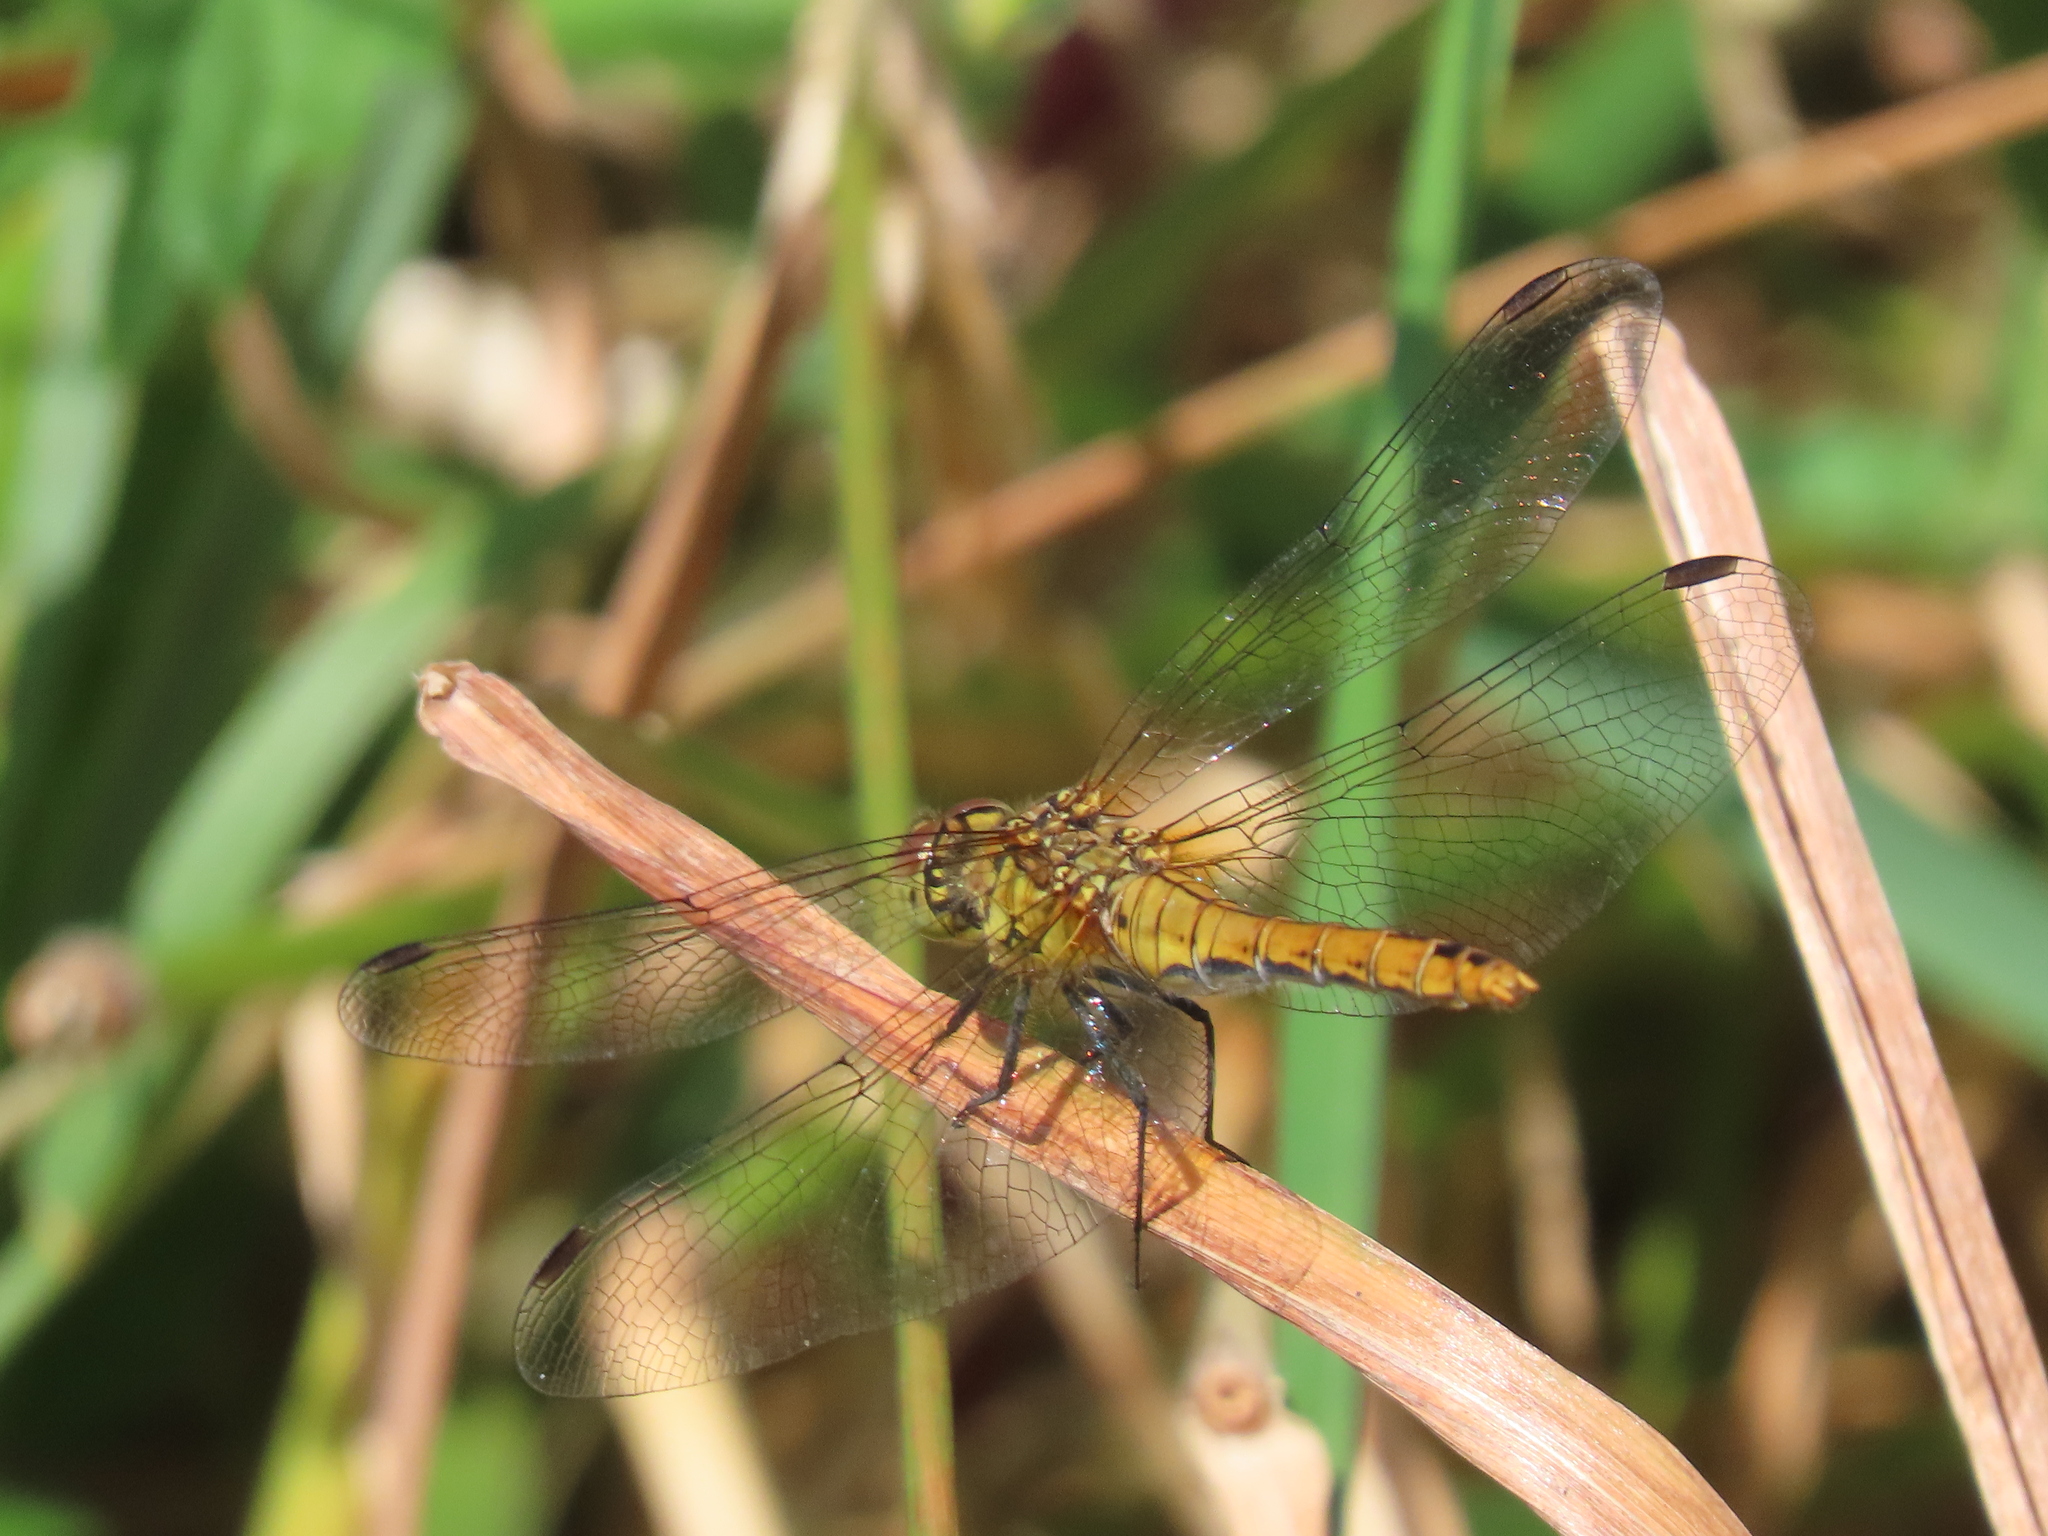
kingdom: Animalia
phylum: Arthropoda
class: Insecta
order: Odonata
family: Libellulidae
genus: Sympetrum
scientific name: Sympetrum sanguineum
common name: Ruddy darter
